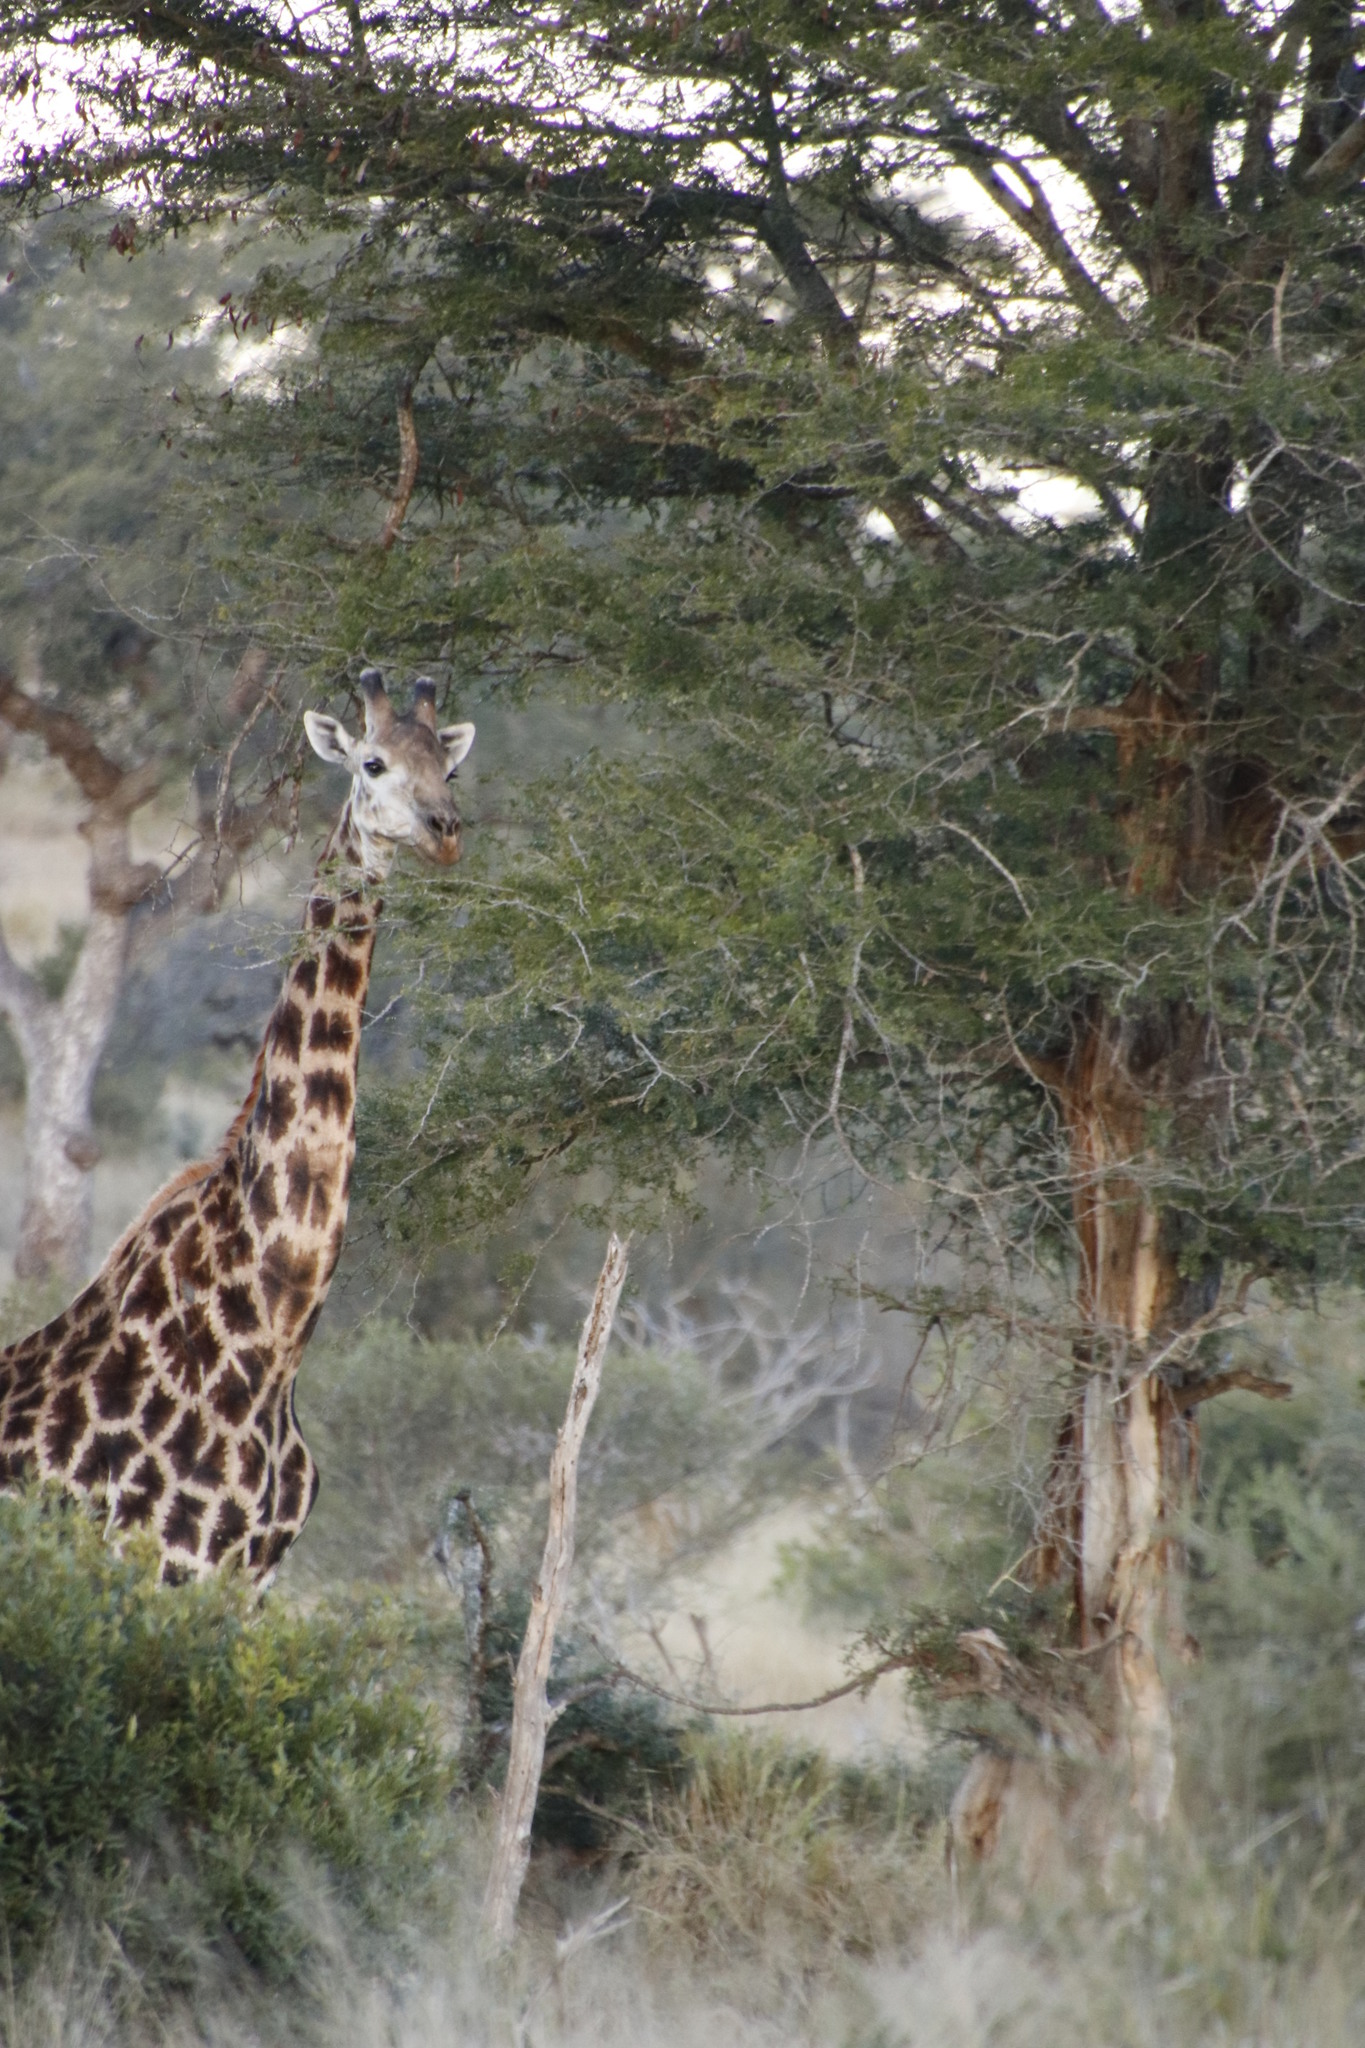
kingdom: Animalia
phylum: Chordata
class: Mammalia
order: Artiodactyla
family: Giraffidae
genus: Giraffa
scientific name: Giraffa giraffa
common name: Southern giraffe
